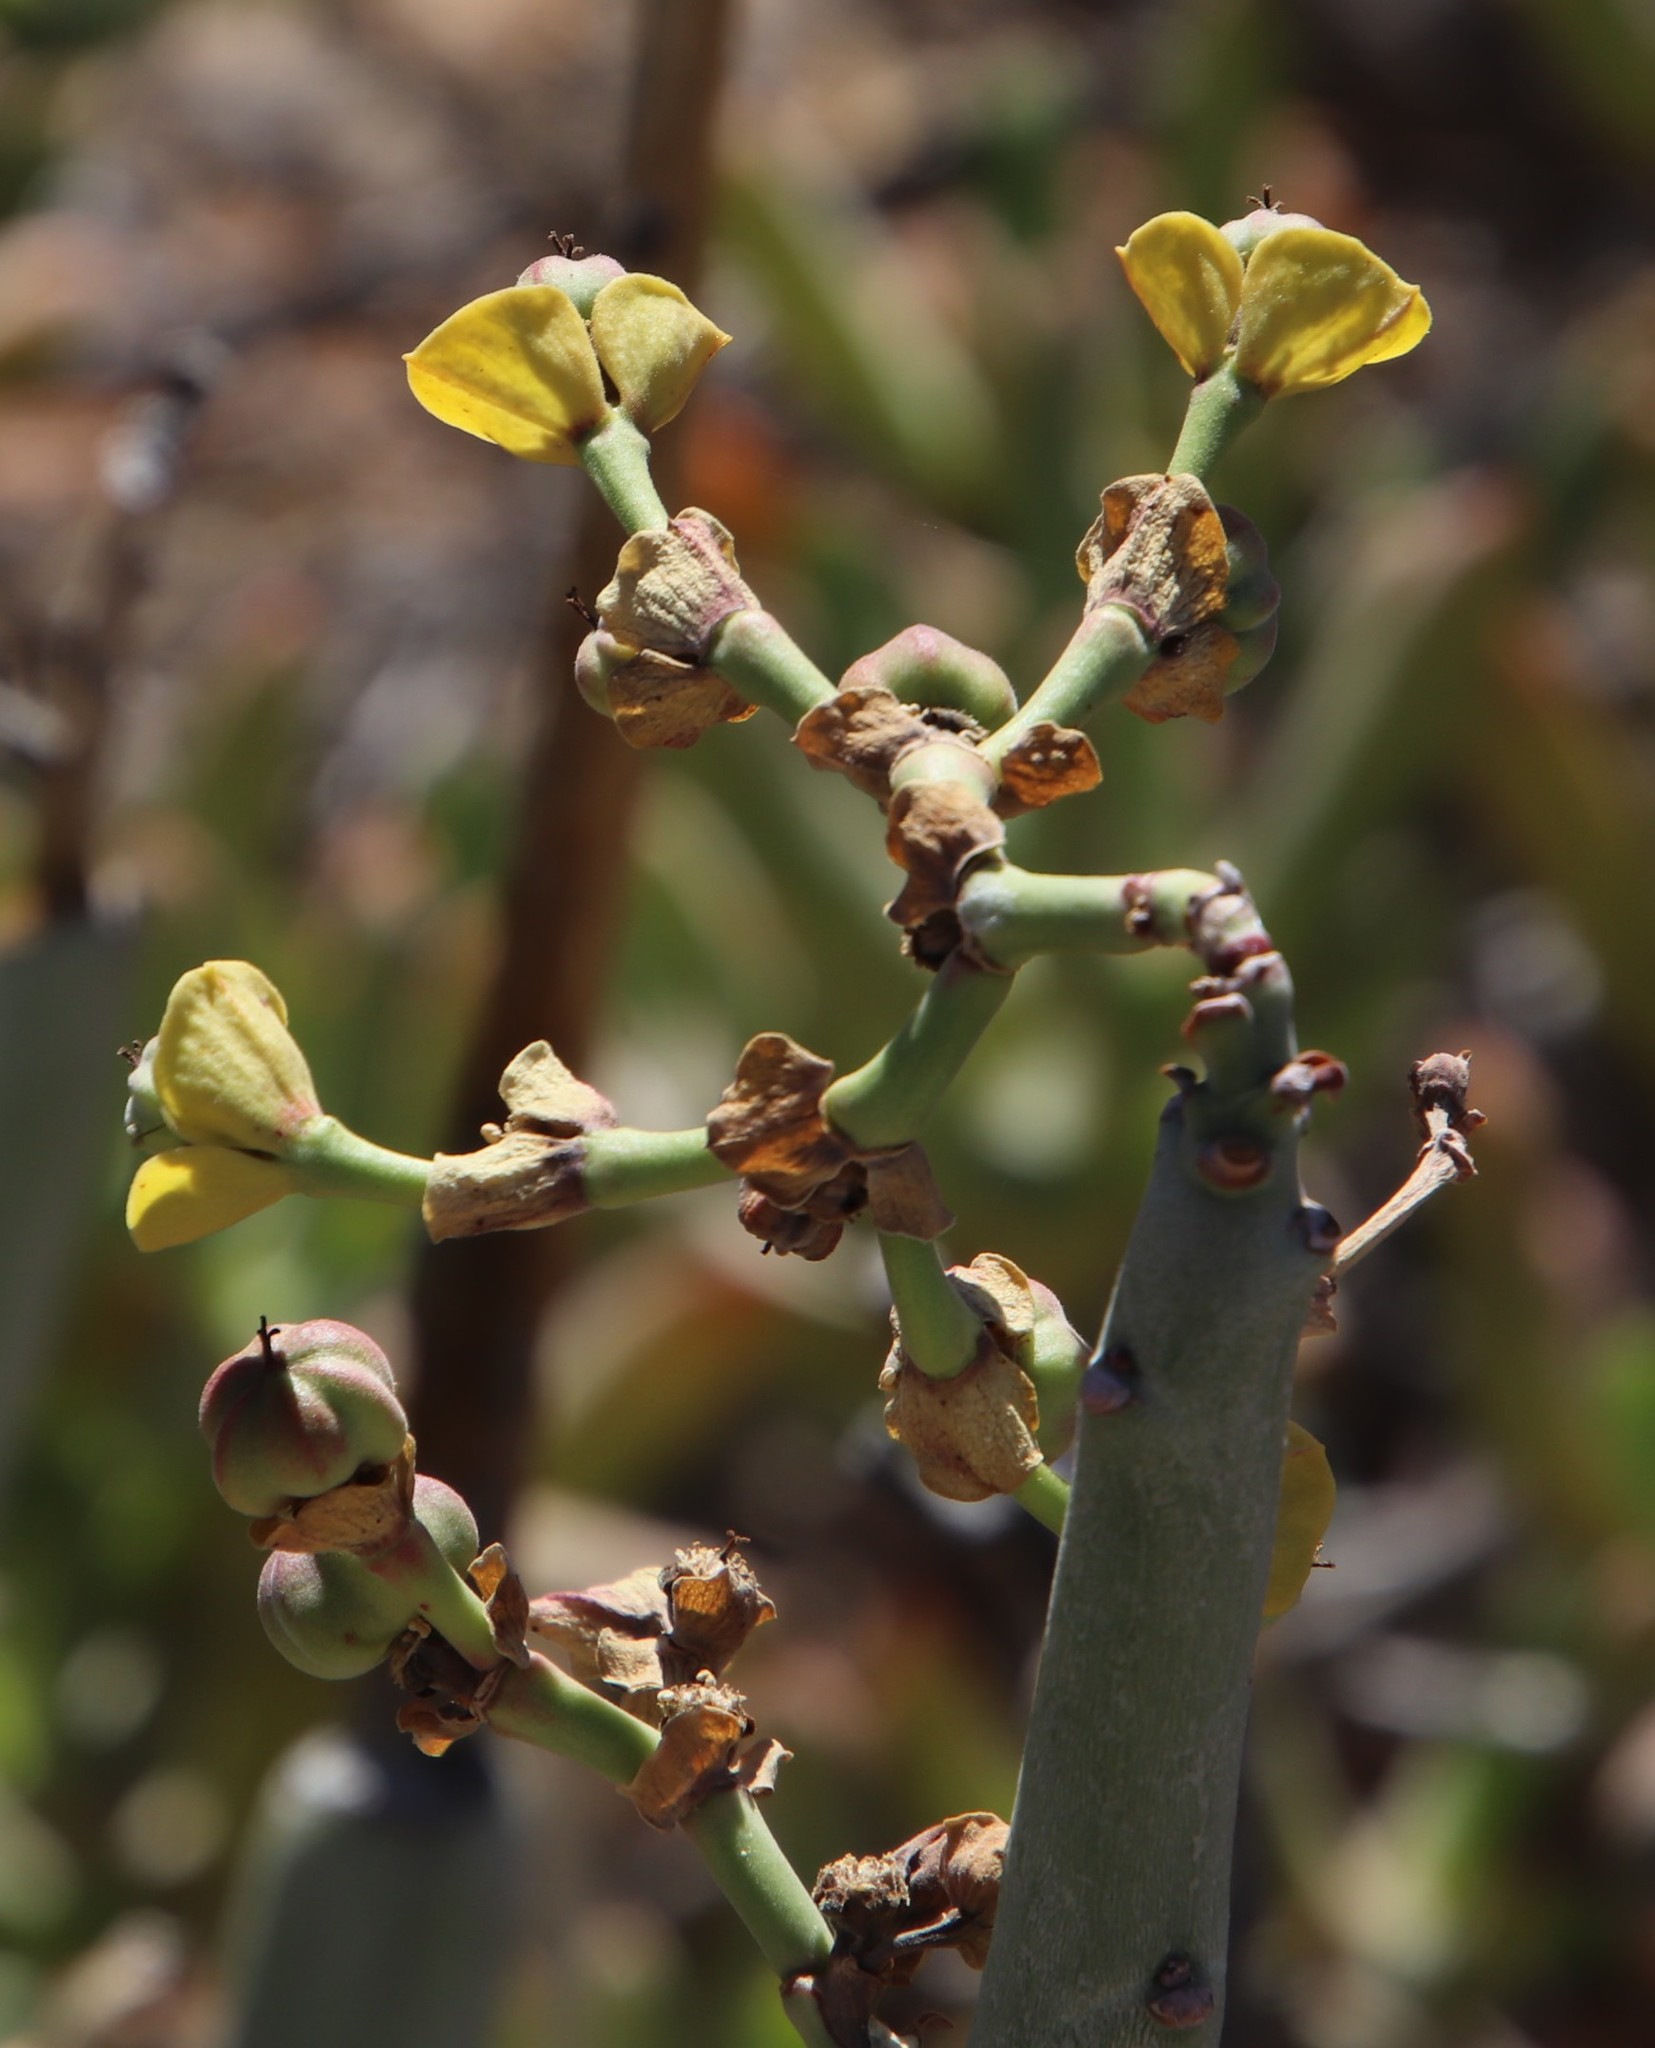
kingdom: Plantae
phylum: Tracheophyta
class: Magnoliopsida
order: Malpighiales
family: Euphorbiaceae
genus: Euphorbia
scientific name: Euphorbia dregeana
